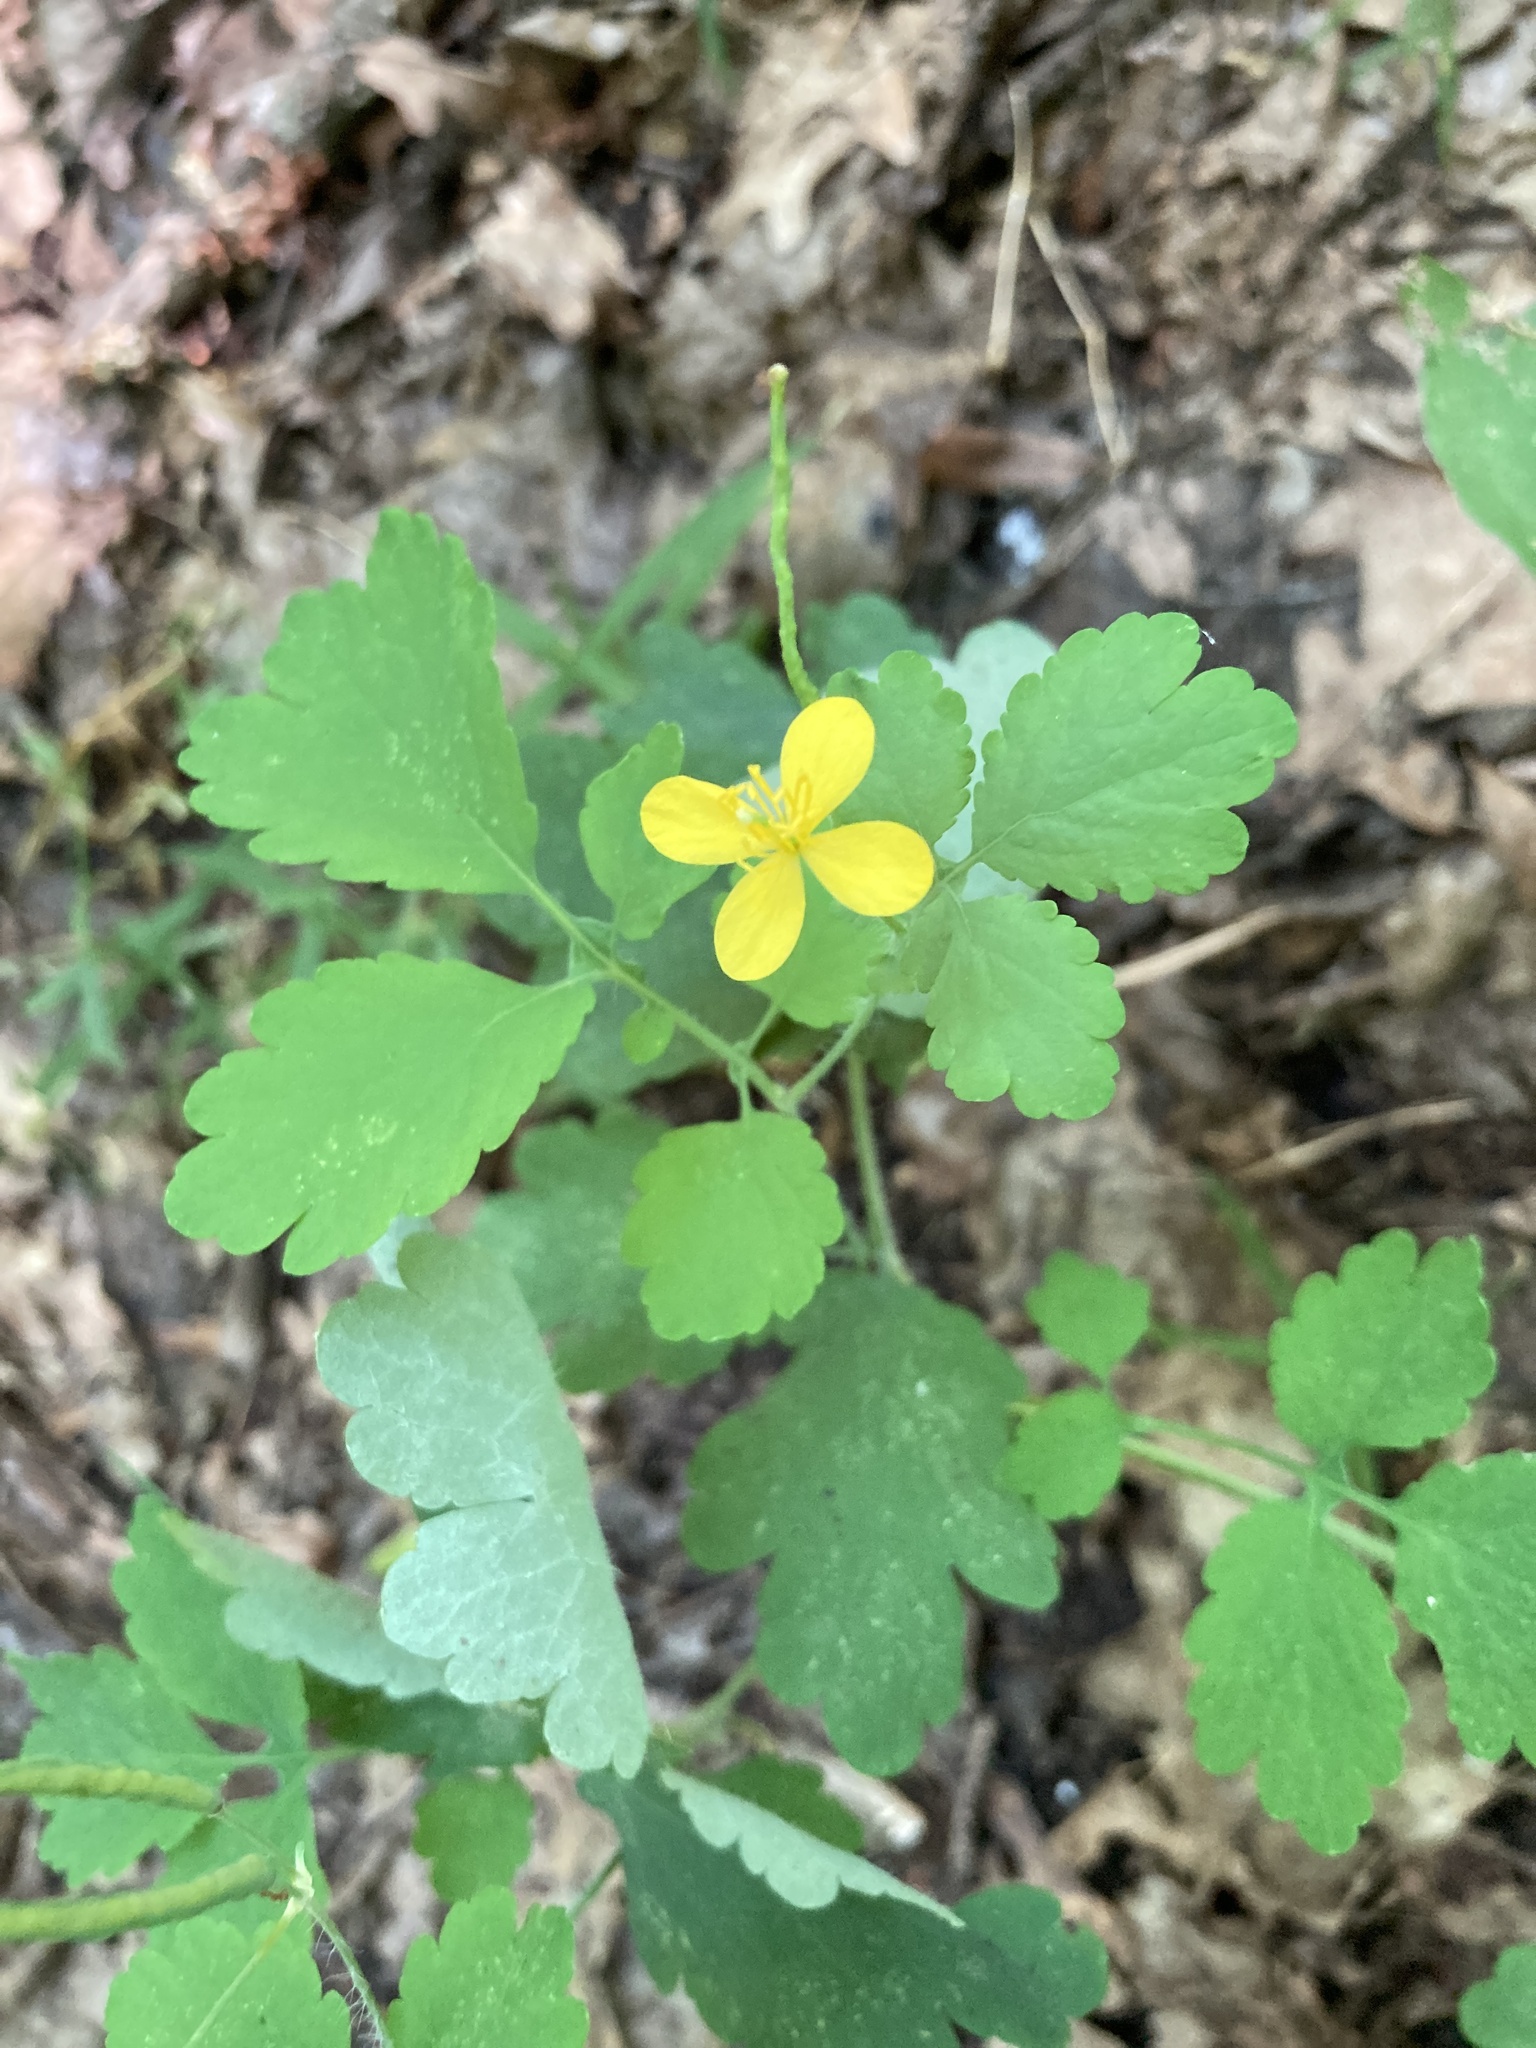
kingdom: Plantae
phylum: Tracheophyta
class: Magnoliopsida
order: Ranunculales
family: Papaveraceae
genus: Chelidonium
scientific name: Chelidonium majus
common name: Greater celandine
